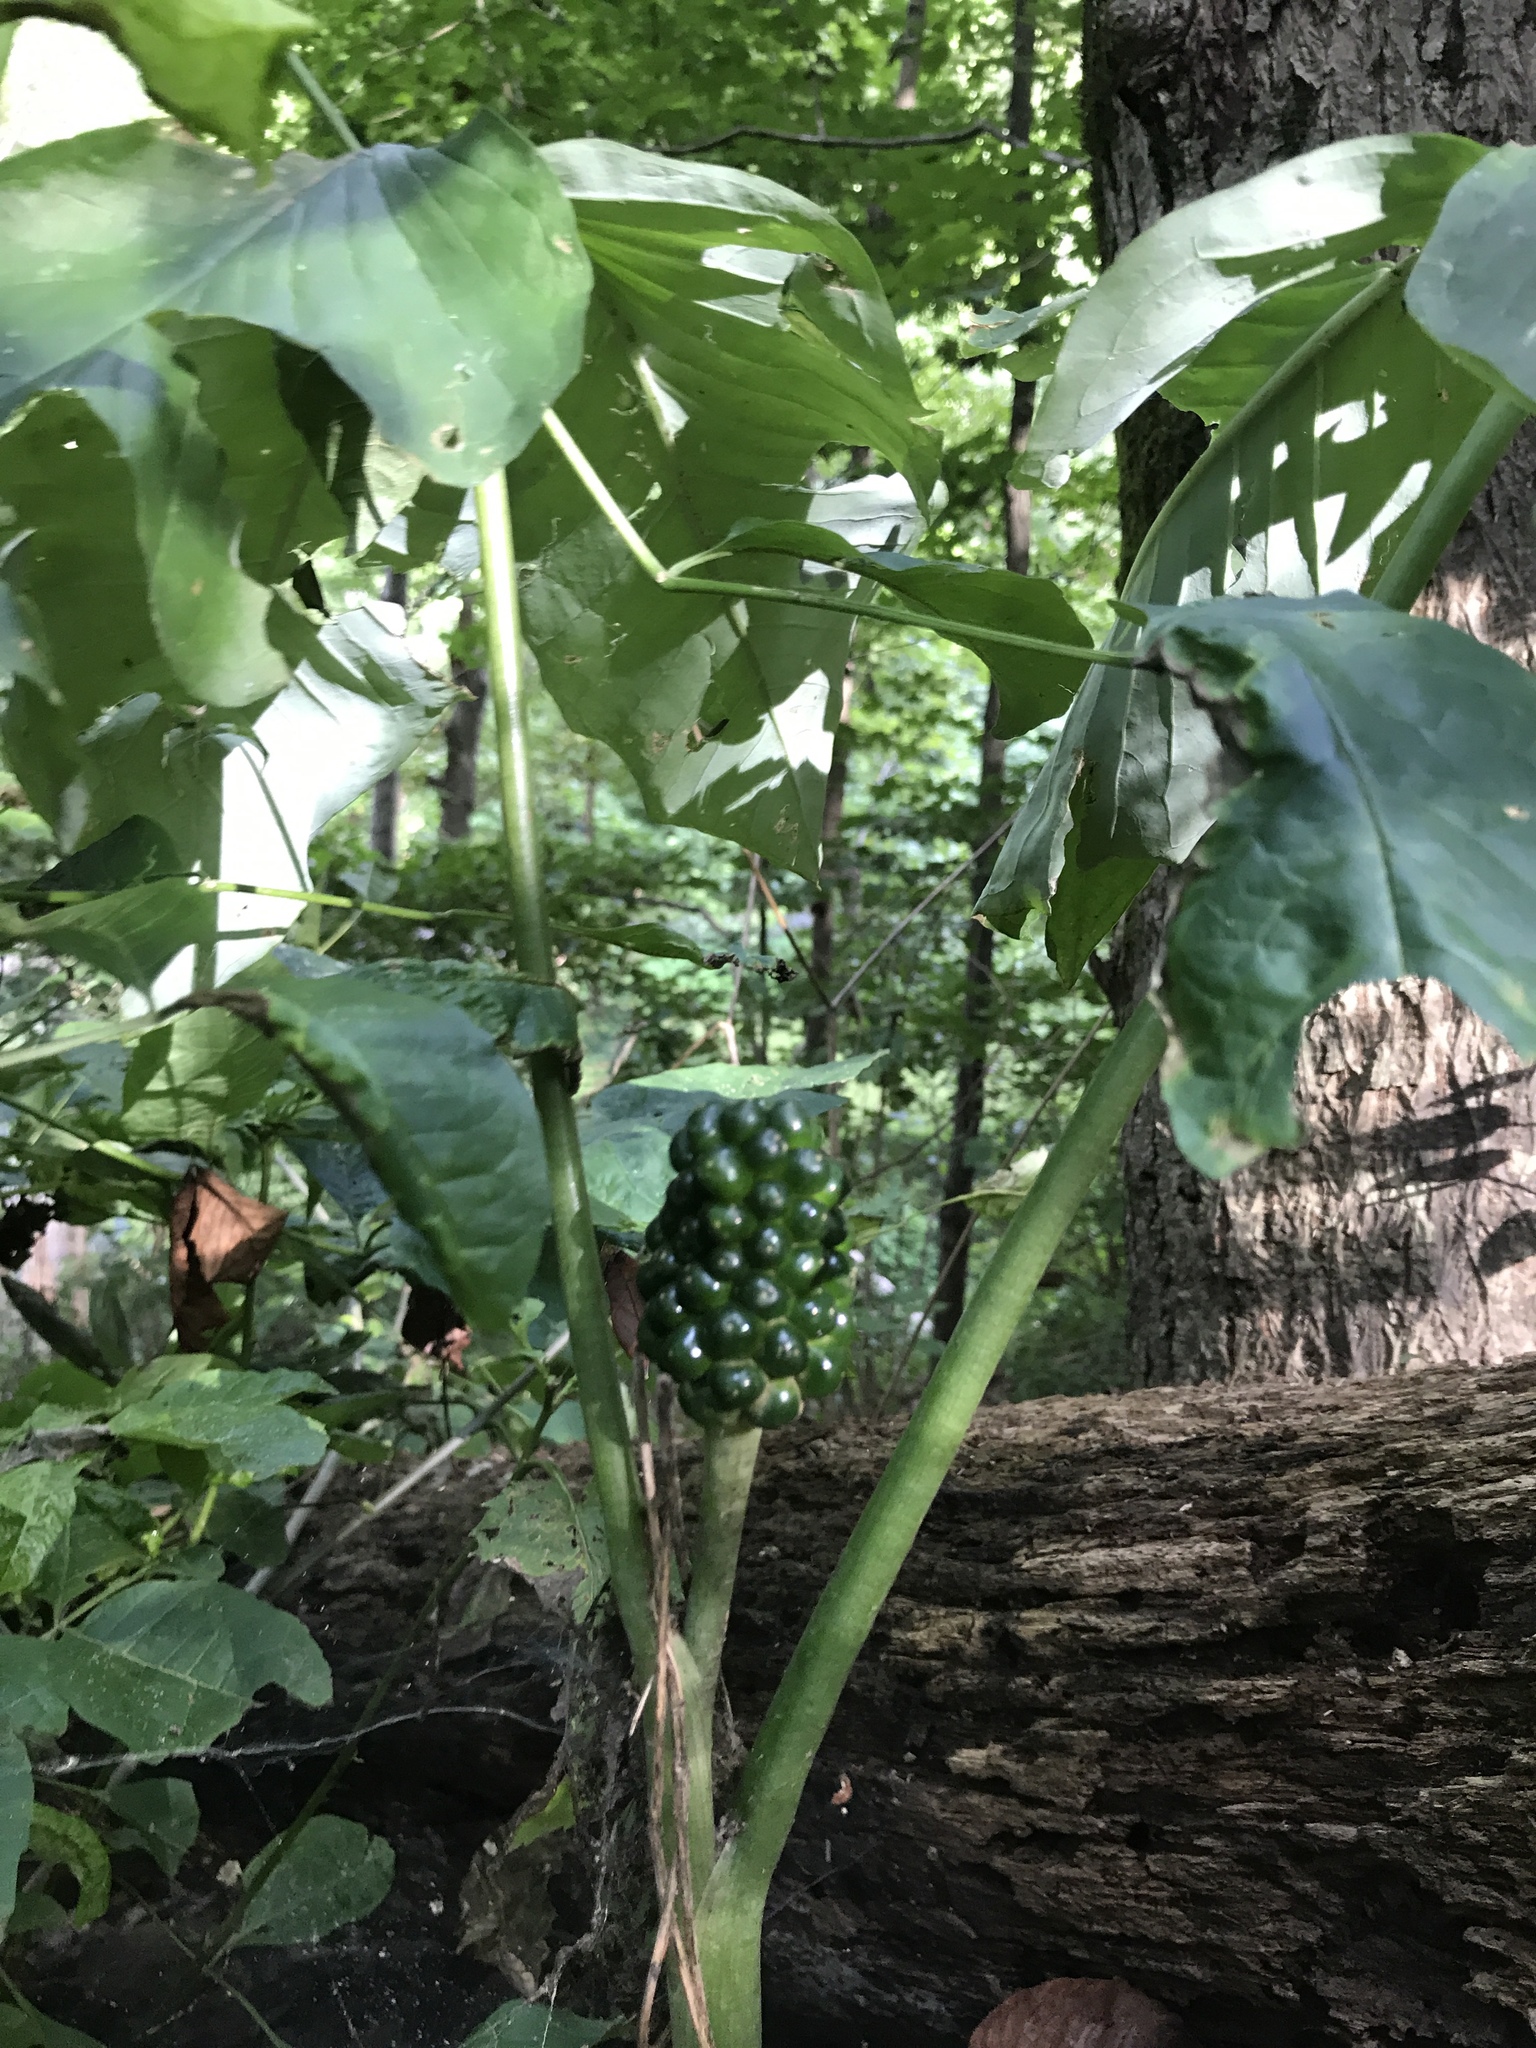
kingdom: Plantae
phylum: Tracheophyta
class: Liliopsida
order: Alismatales
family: Araceae
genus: Arisaema
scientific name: Arisaema triphyllum
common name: Jack-in-the-pulpit
